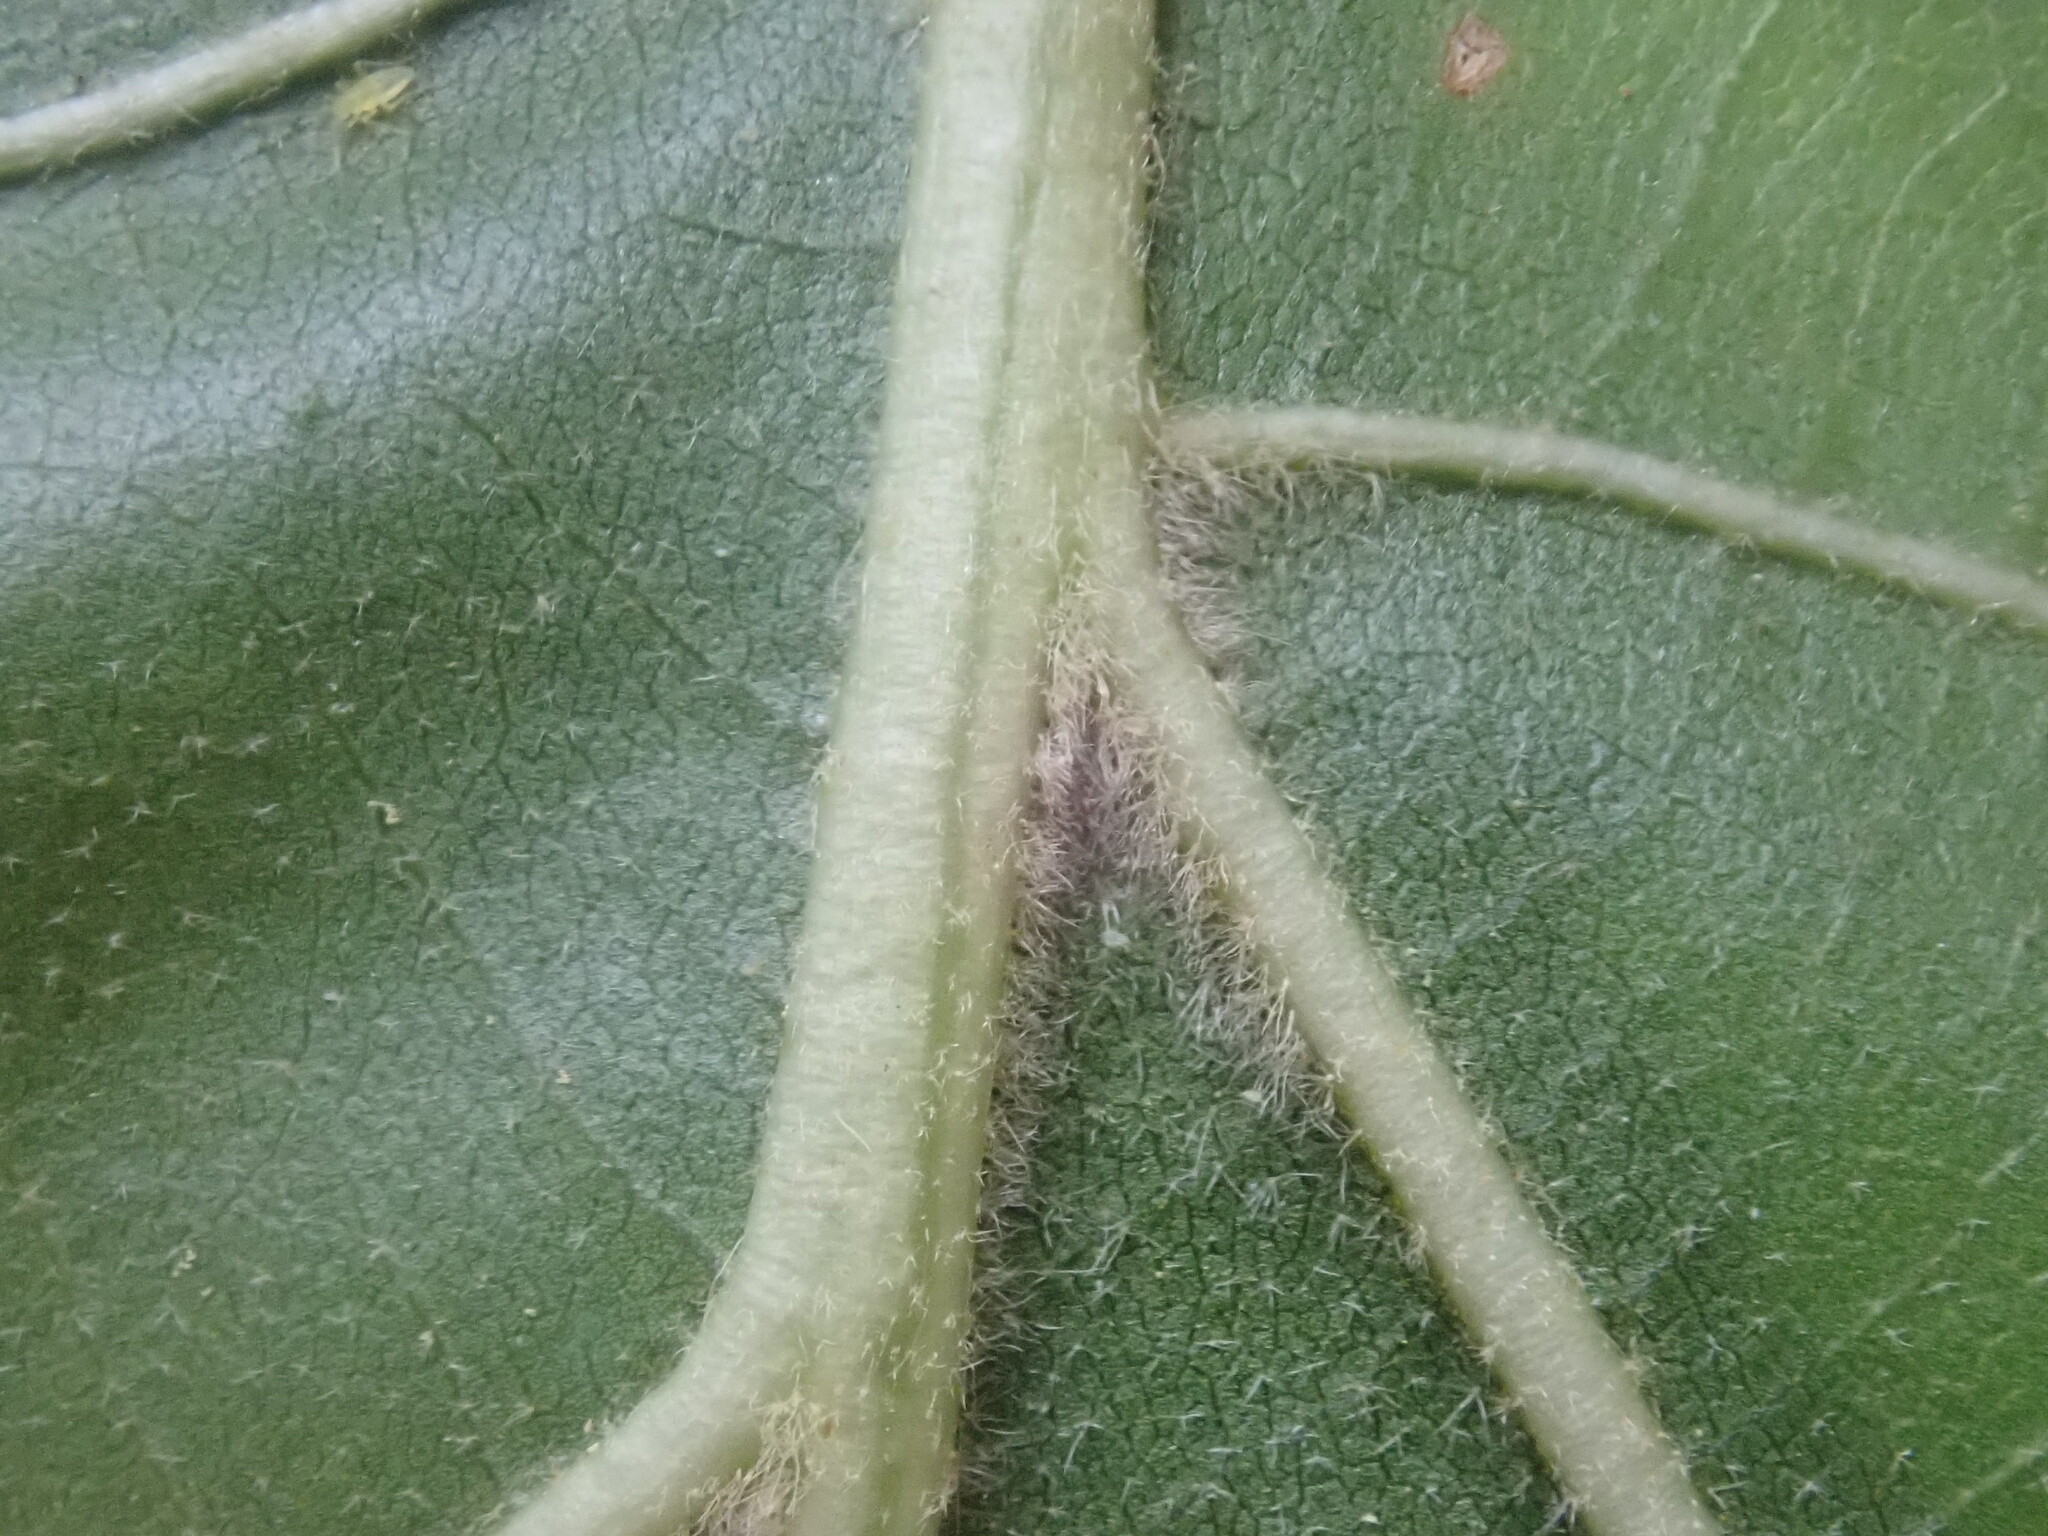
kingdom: Plantae
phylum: Tracheophyta
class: Magnoliopsida
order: Fagales
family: Fagaceae
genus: Quercus
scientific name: Quercus velutina
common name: Black oak
